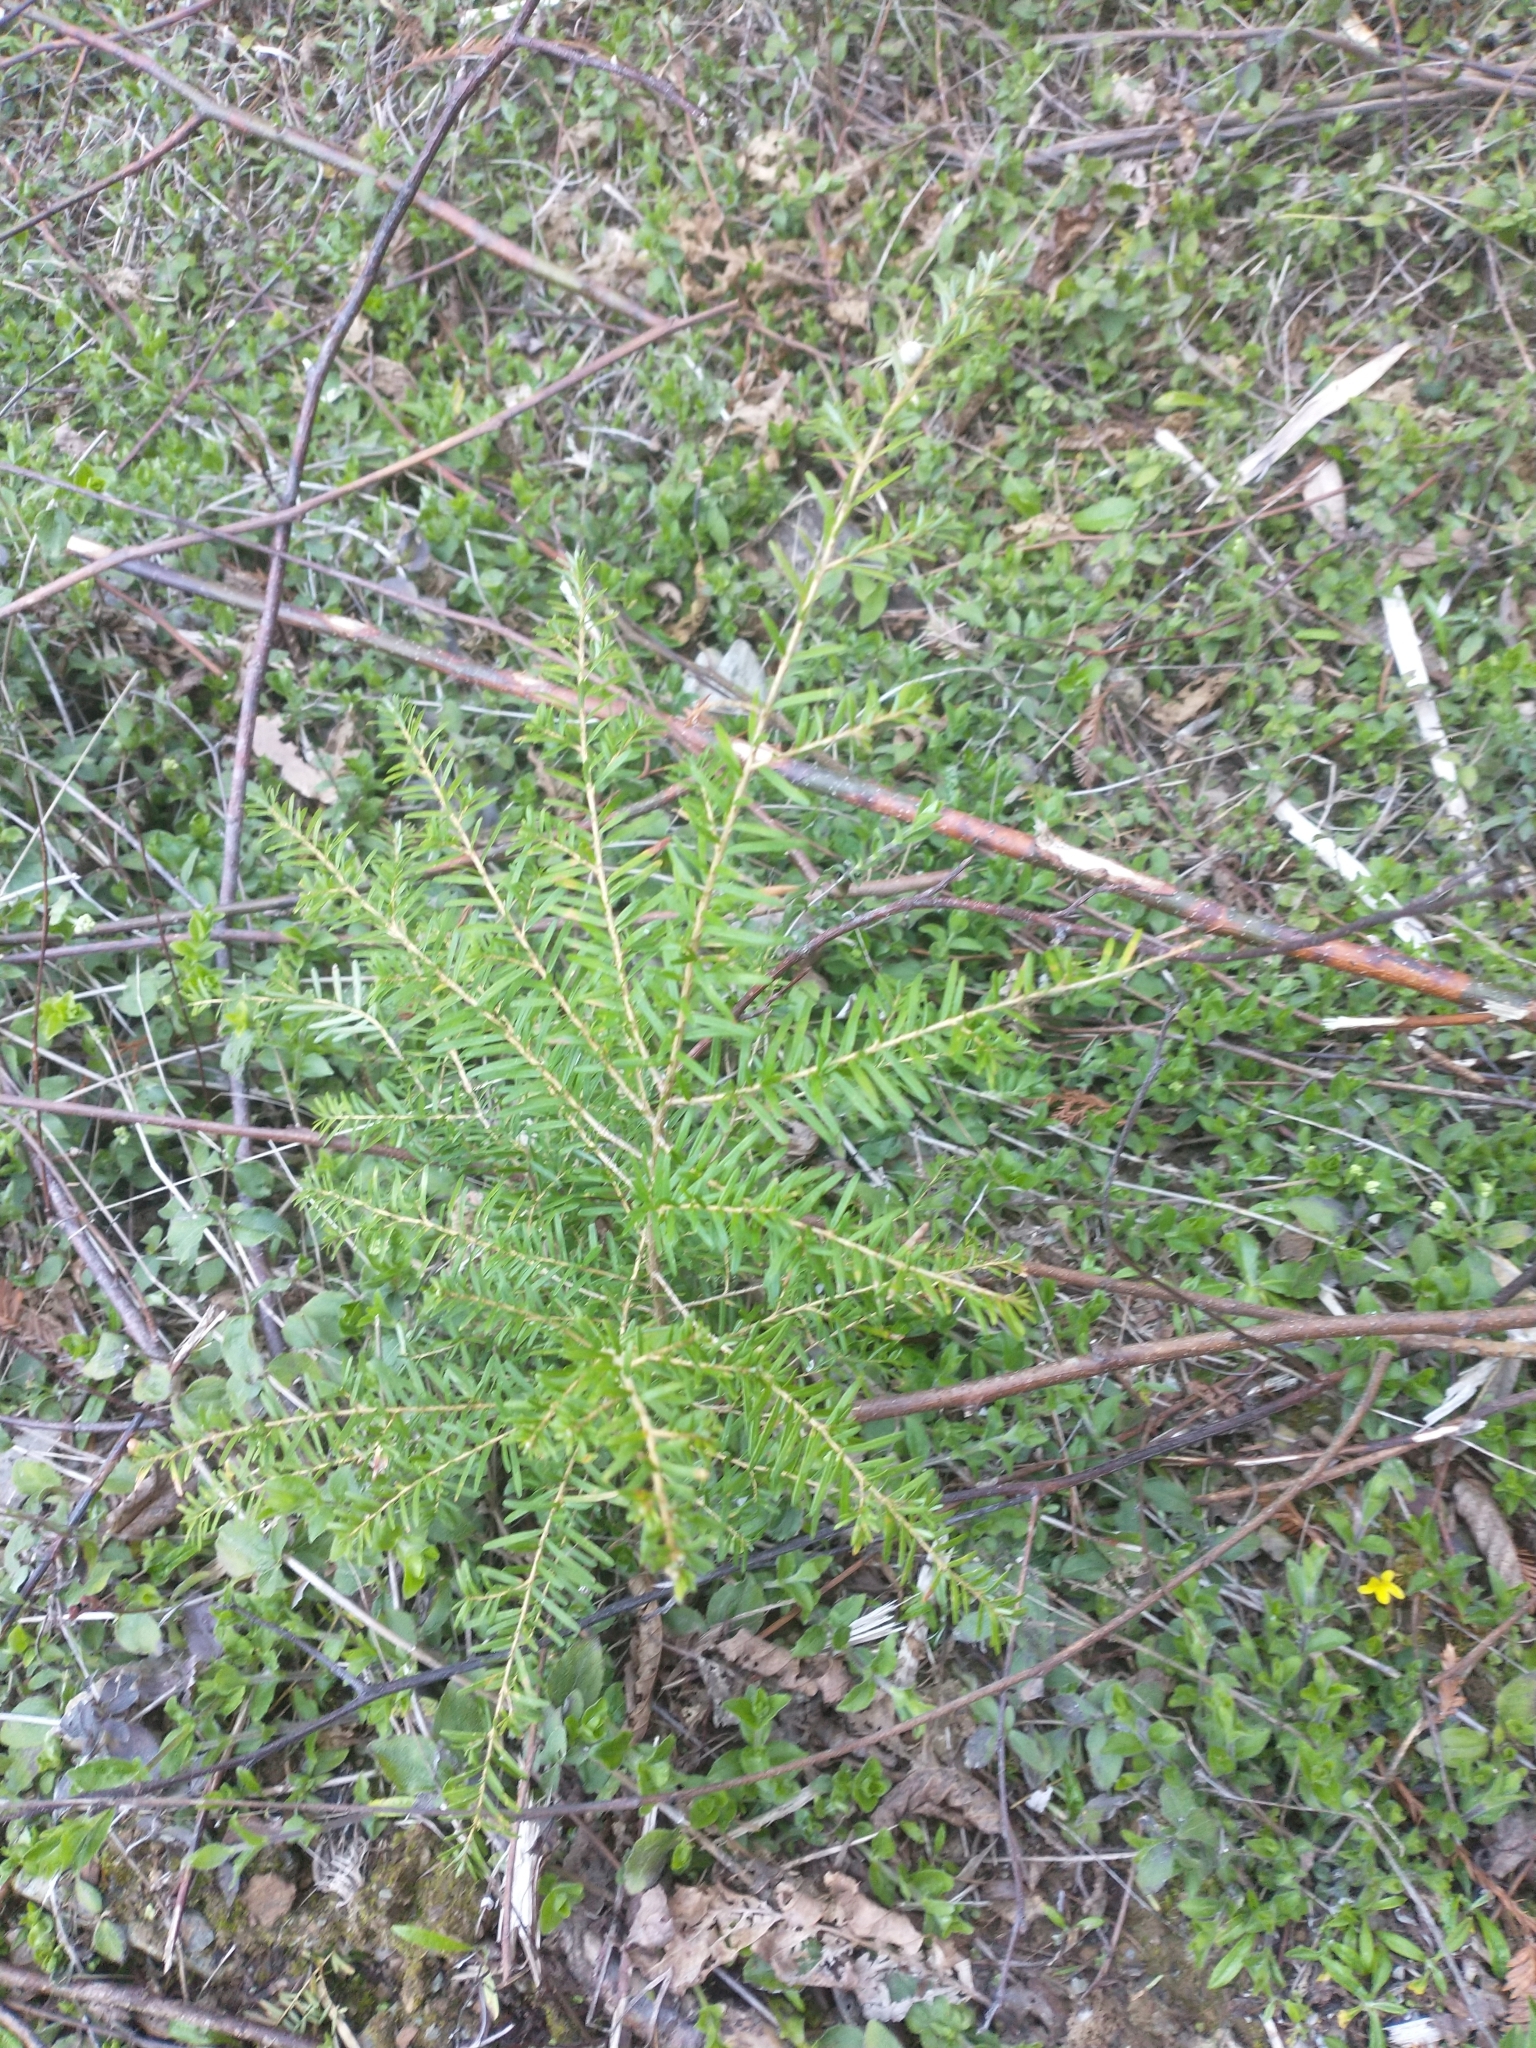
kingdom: Plantae
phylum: Tracheophyta
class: Pinopsida
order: Pinales
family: Pinaceae
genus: Tsuga
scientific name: Tsuga heterophylla
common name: Western hemlock
